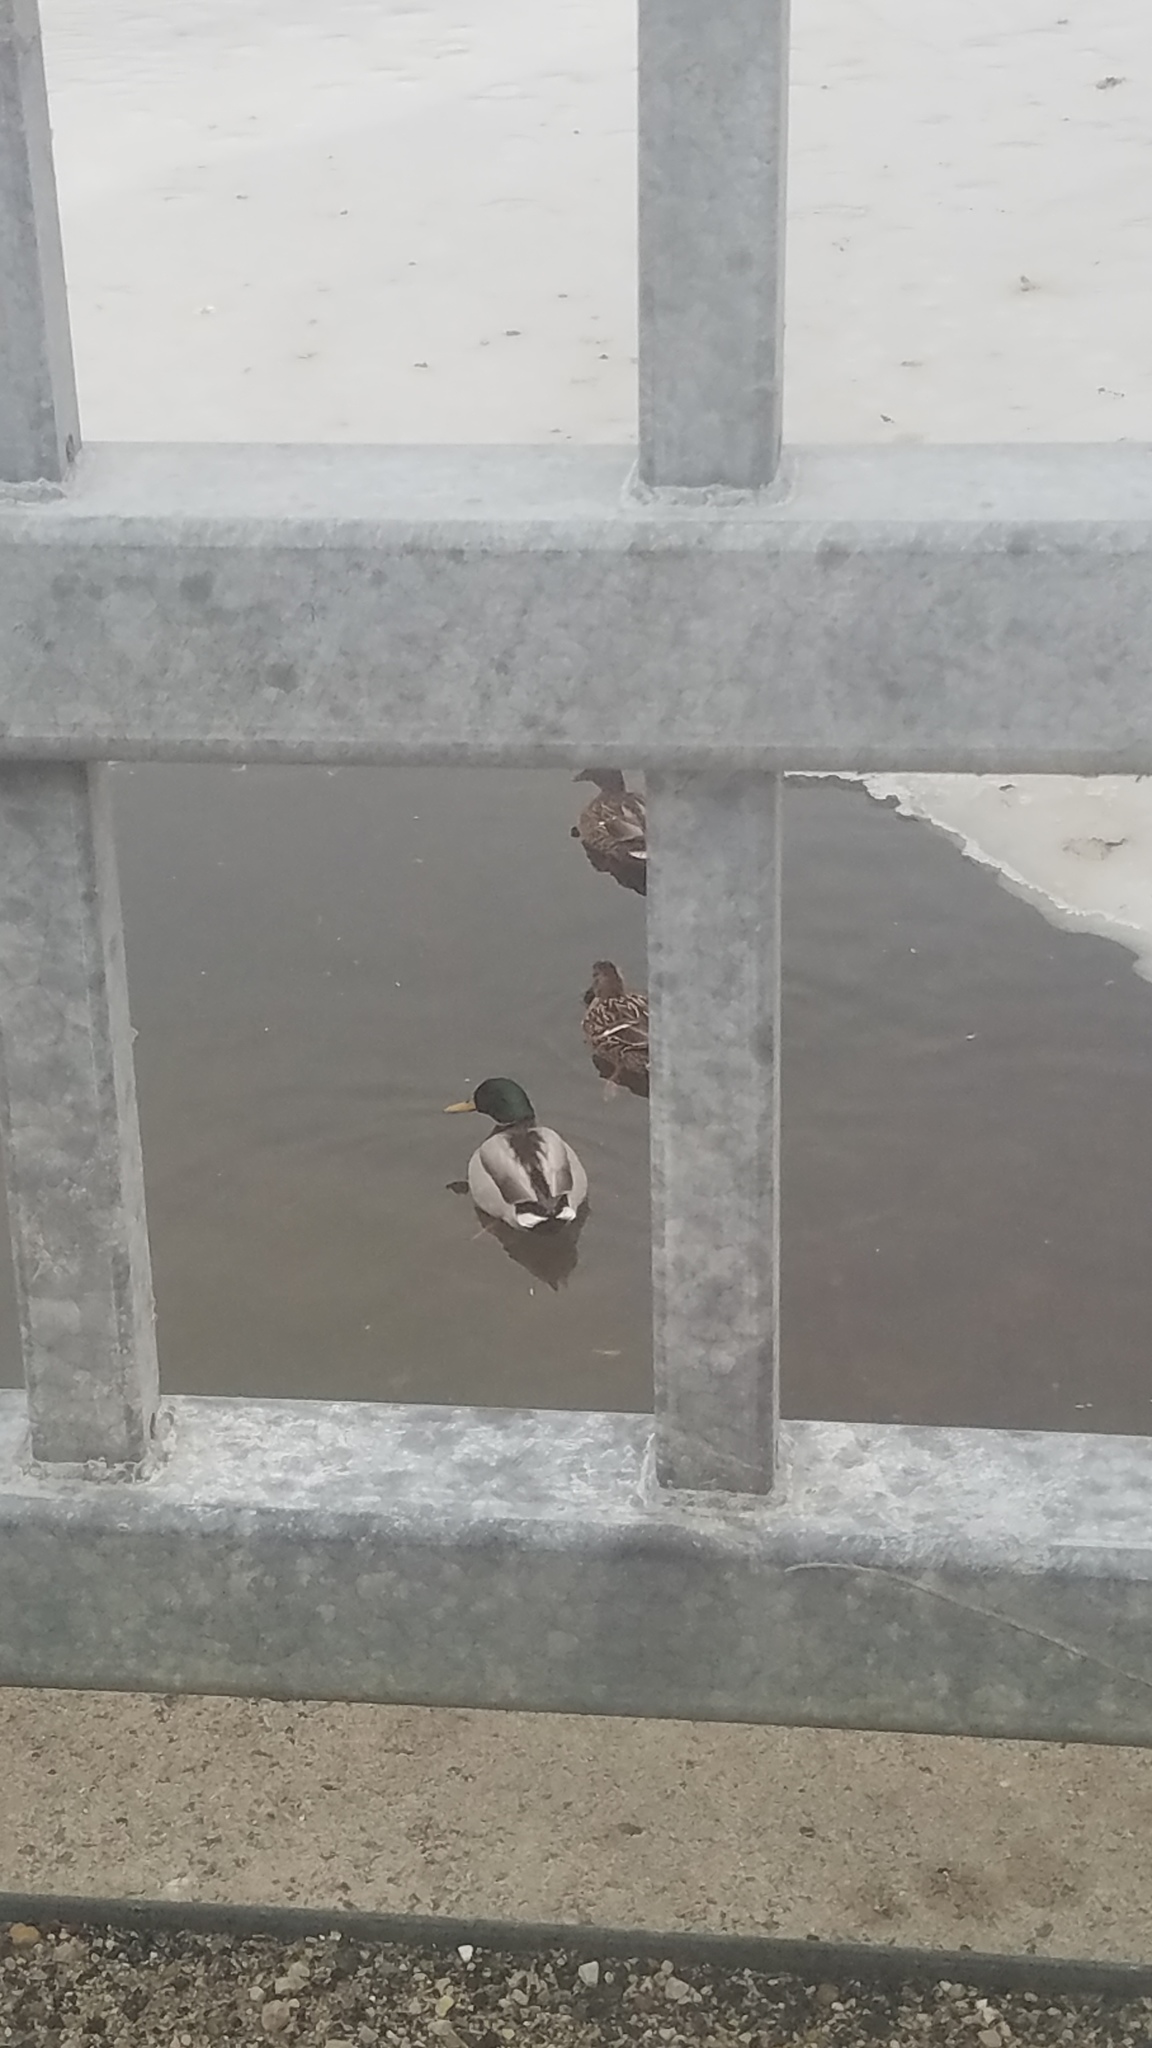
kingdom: Animalia
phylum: Chordata
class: Aves
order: Anseriformes
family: Anatidae
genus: Anas
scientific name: Anas platyrhynchos
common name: Mallard
